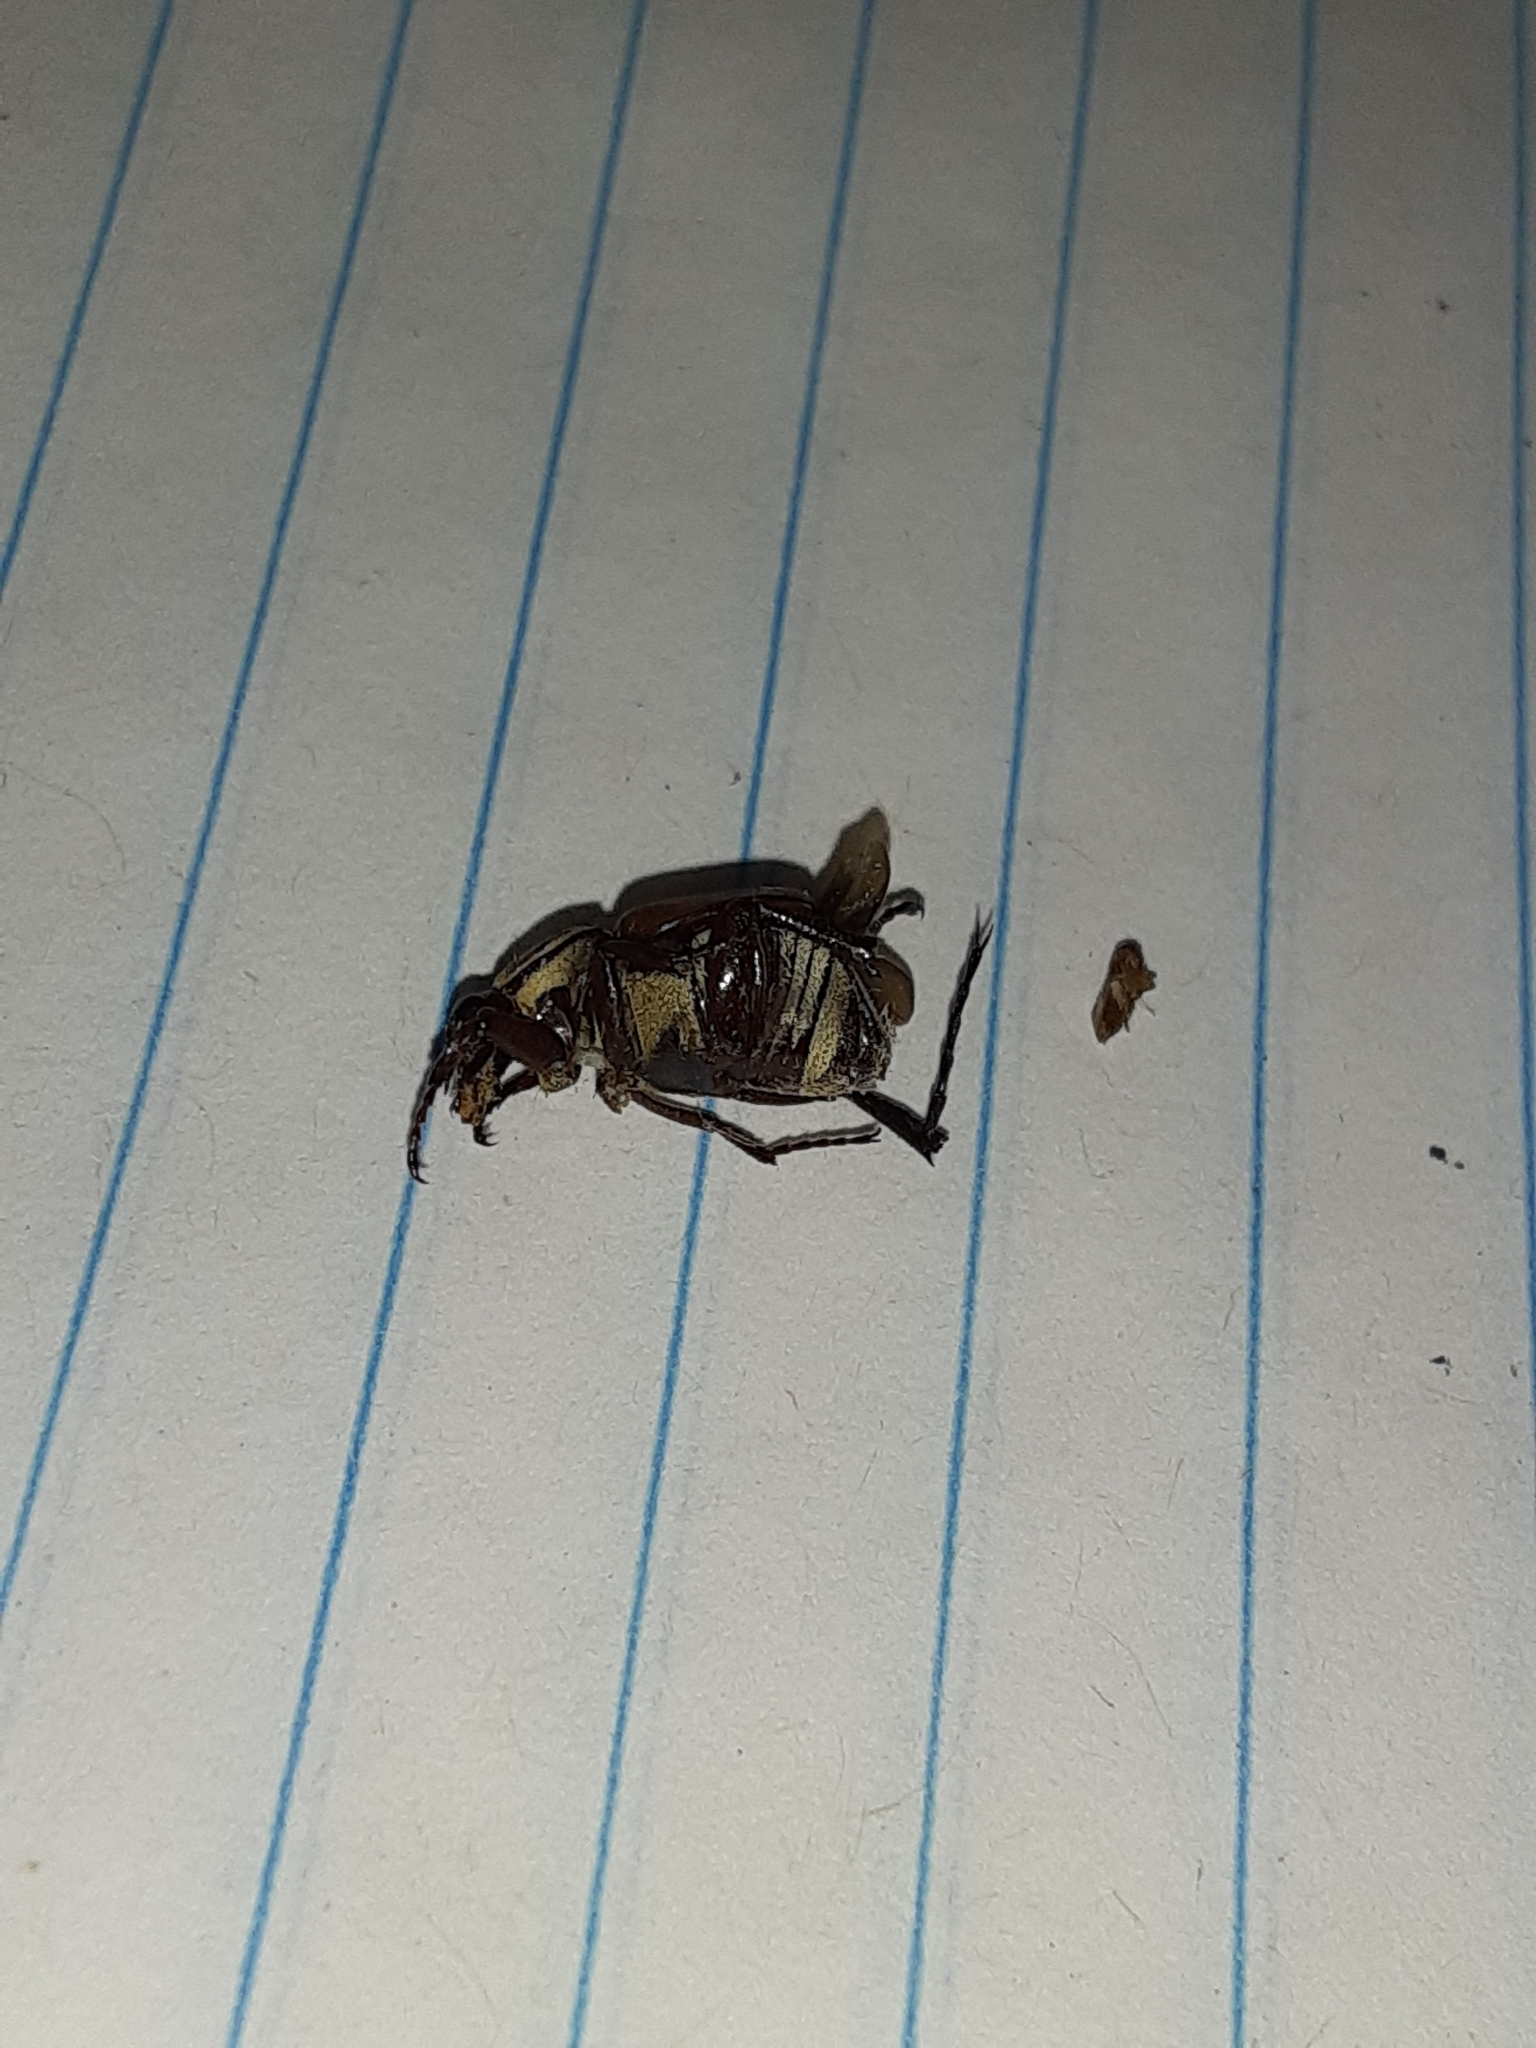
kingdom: Animalia
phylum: Arthropoda
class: Insecta
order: Coleoptera
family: Scarabaeidae
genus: Trigonopeltastes
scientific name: Trigonopeltastes delta
